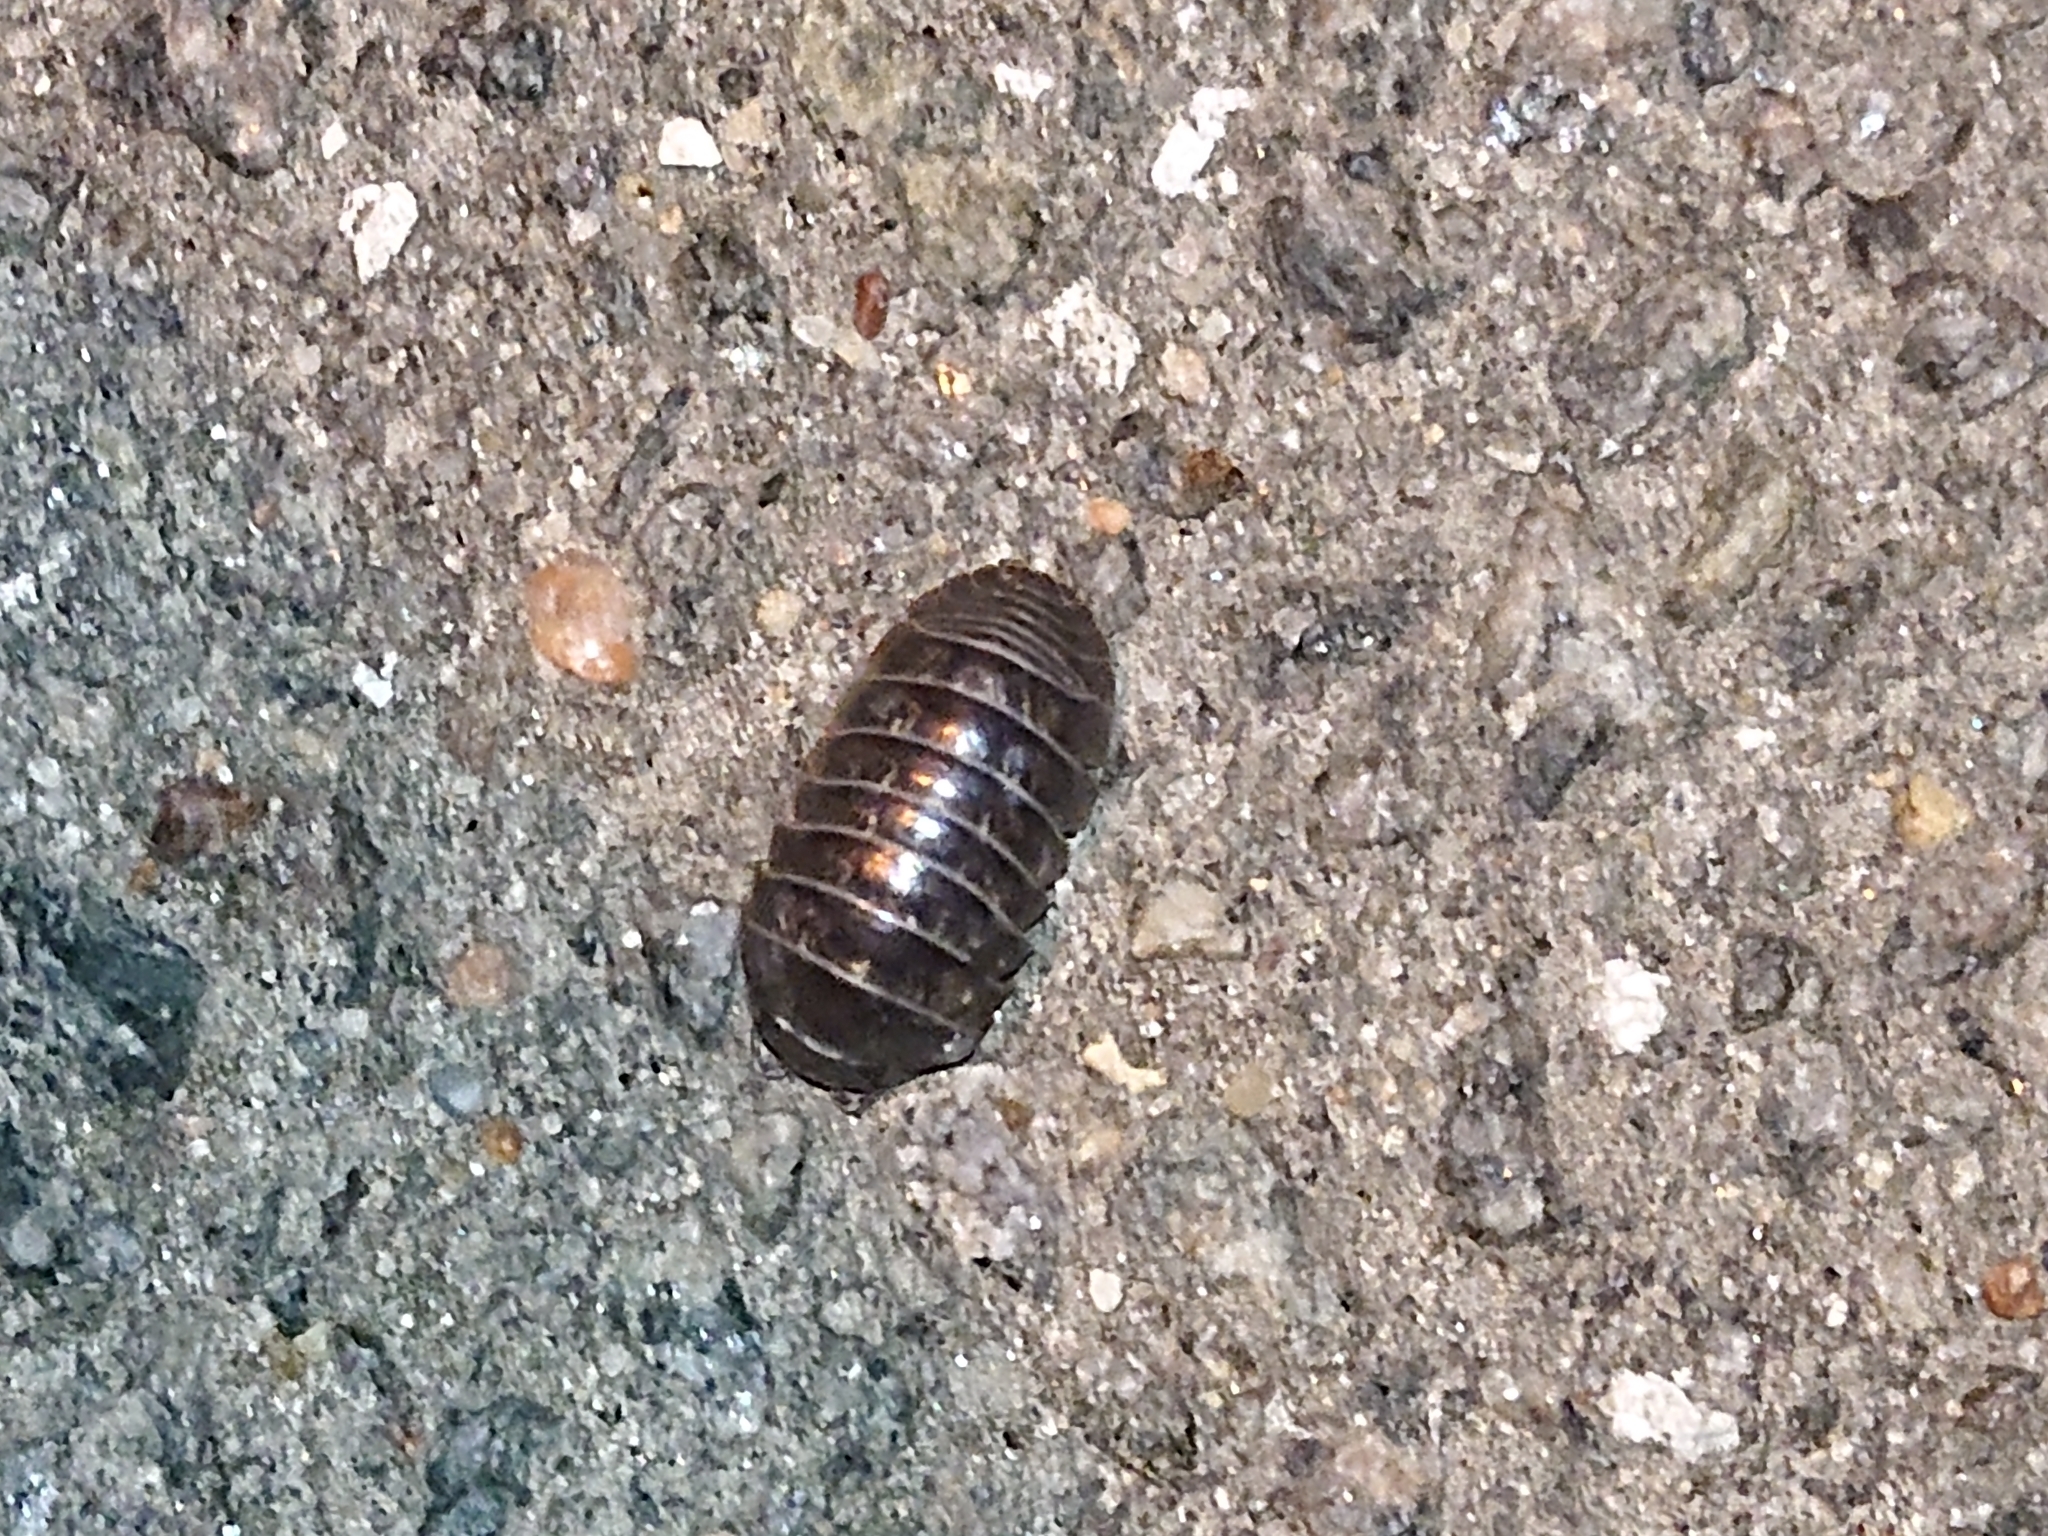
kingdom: Animalia
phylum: Arthropoda
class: Malacostraca
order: Isopoda
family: Armadillidiidae
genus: Armadillidium
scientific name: Armadillidium vulgare
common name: Common pill woodlouse
